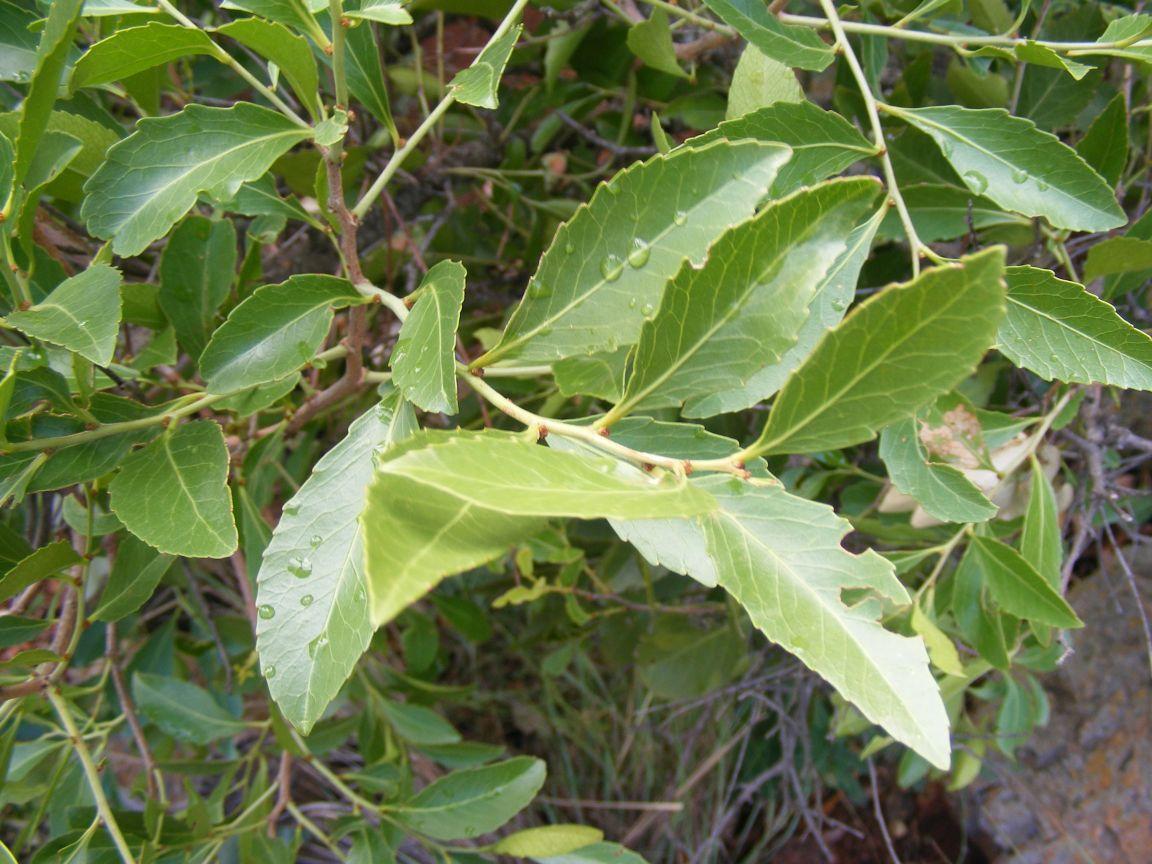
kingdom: Plantae
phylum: Tracheophyta
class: Magnoliopsida
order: Celastrales
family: Celastraceae
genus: Gymnosporia
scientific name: Gymnosporia undata
